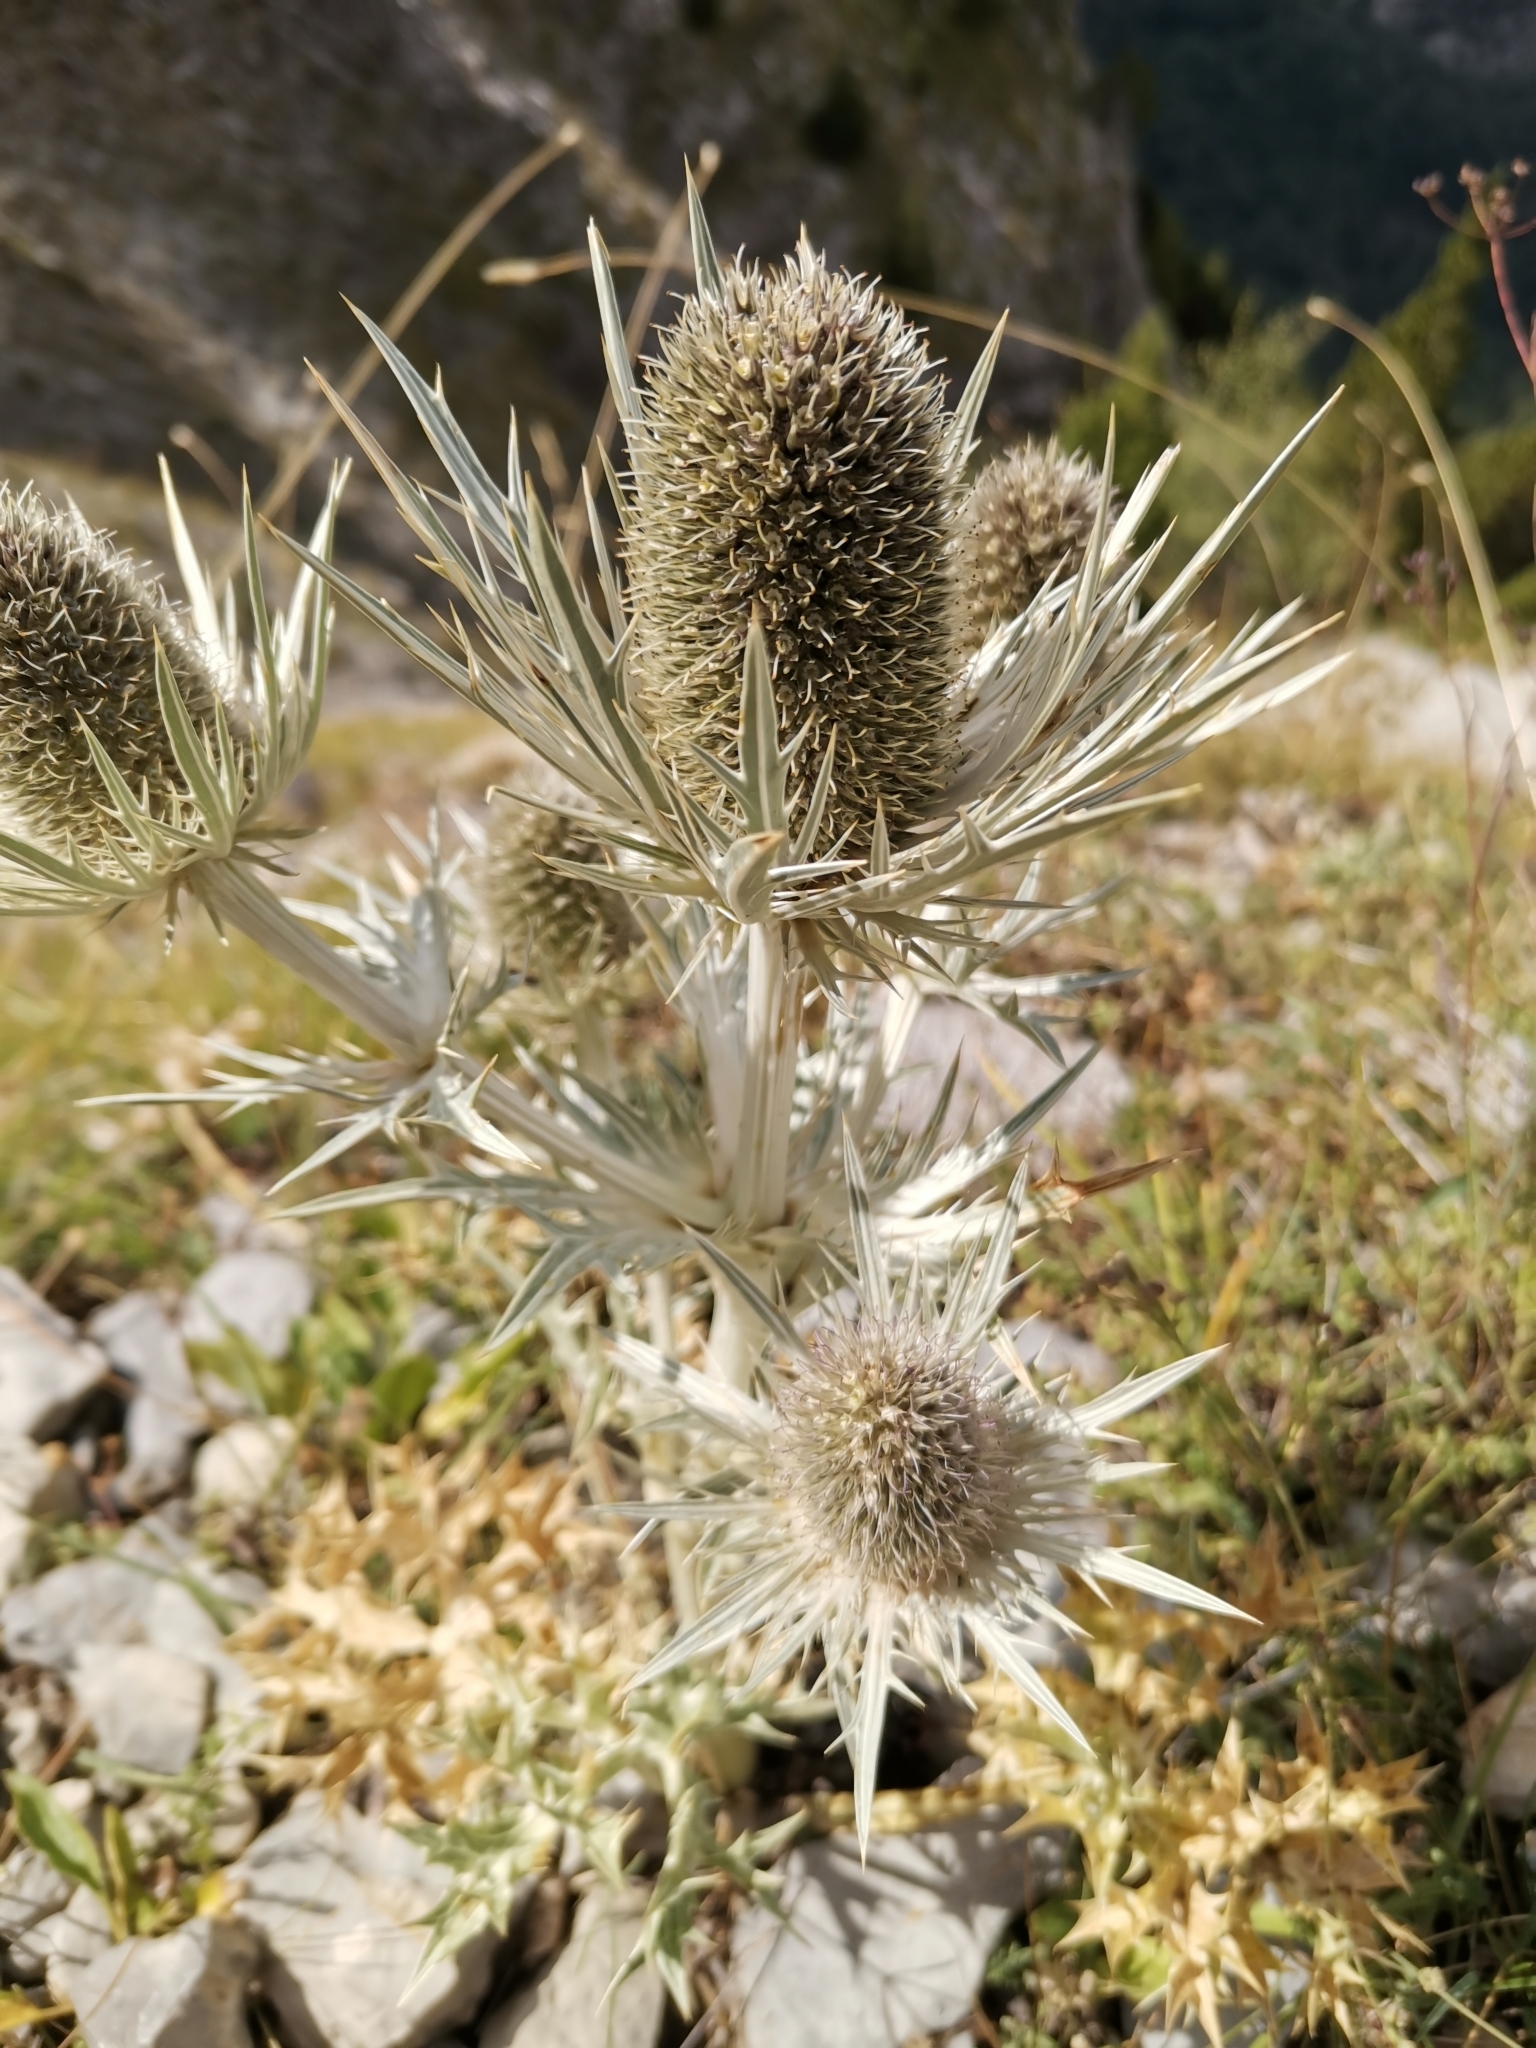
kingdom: Plantae
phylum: Tracheophyta
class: Magnoliopsida
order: Apiales
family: Apiaceae
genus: Eryngium
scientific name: Eryngium spinalba
